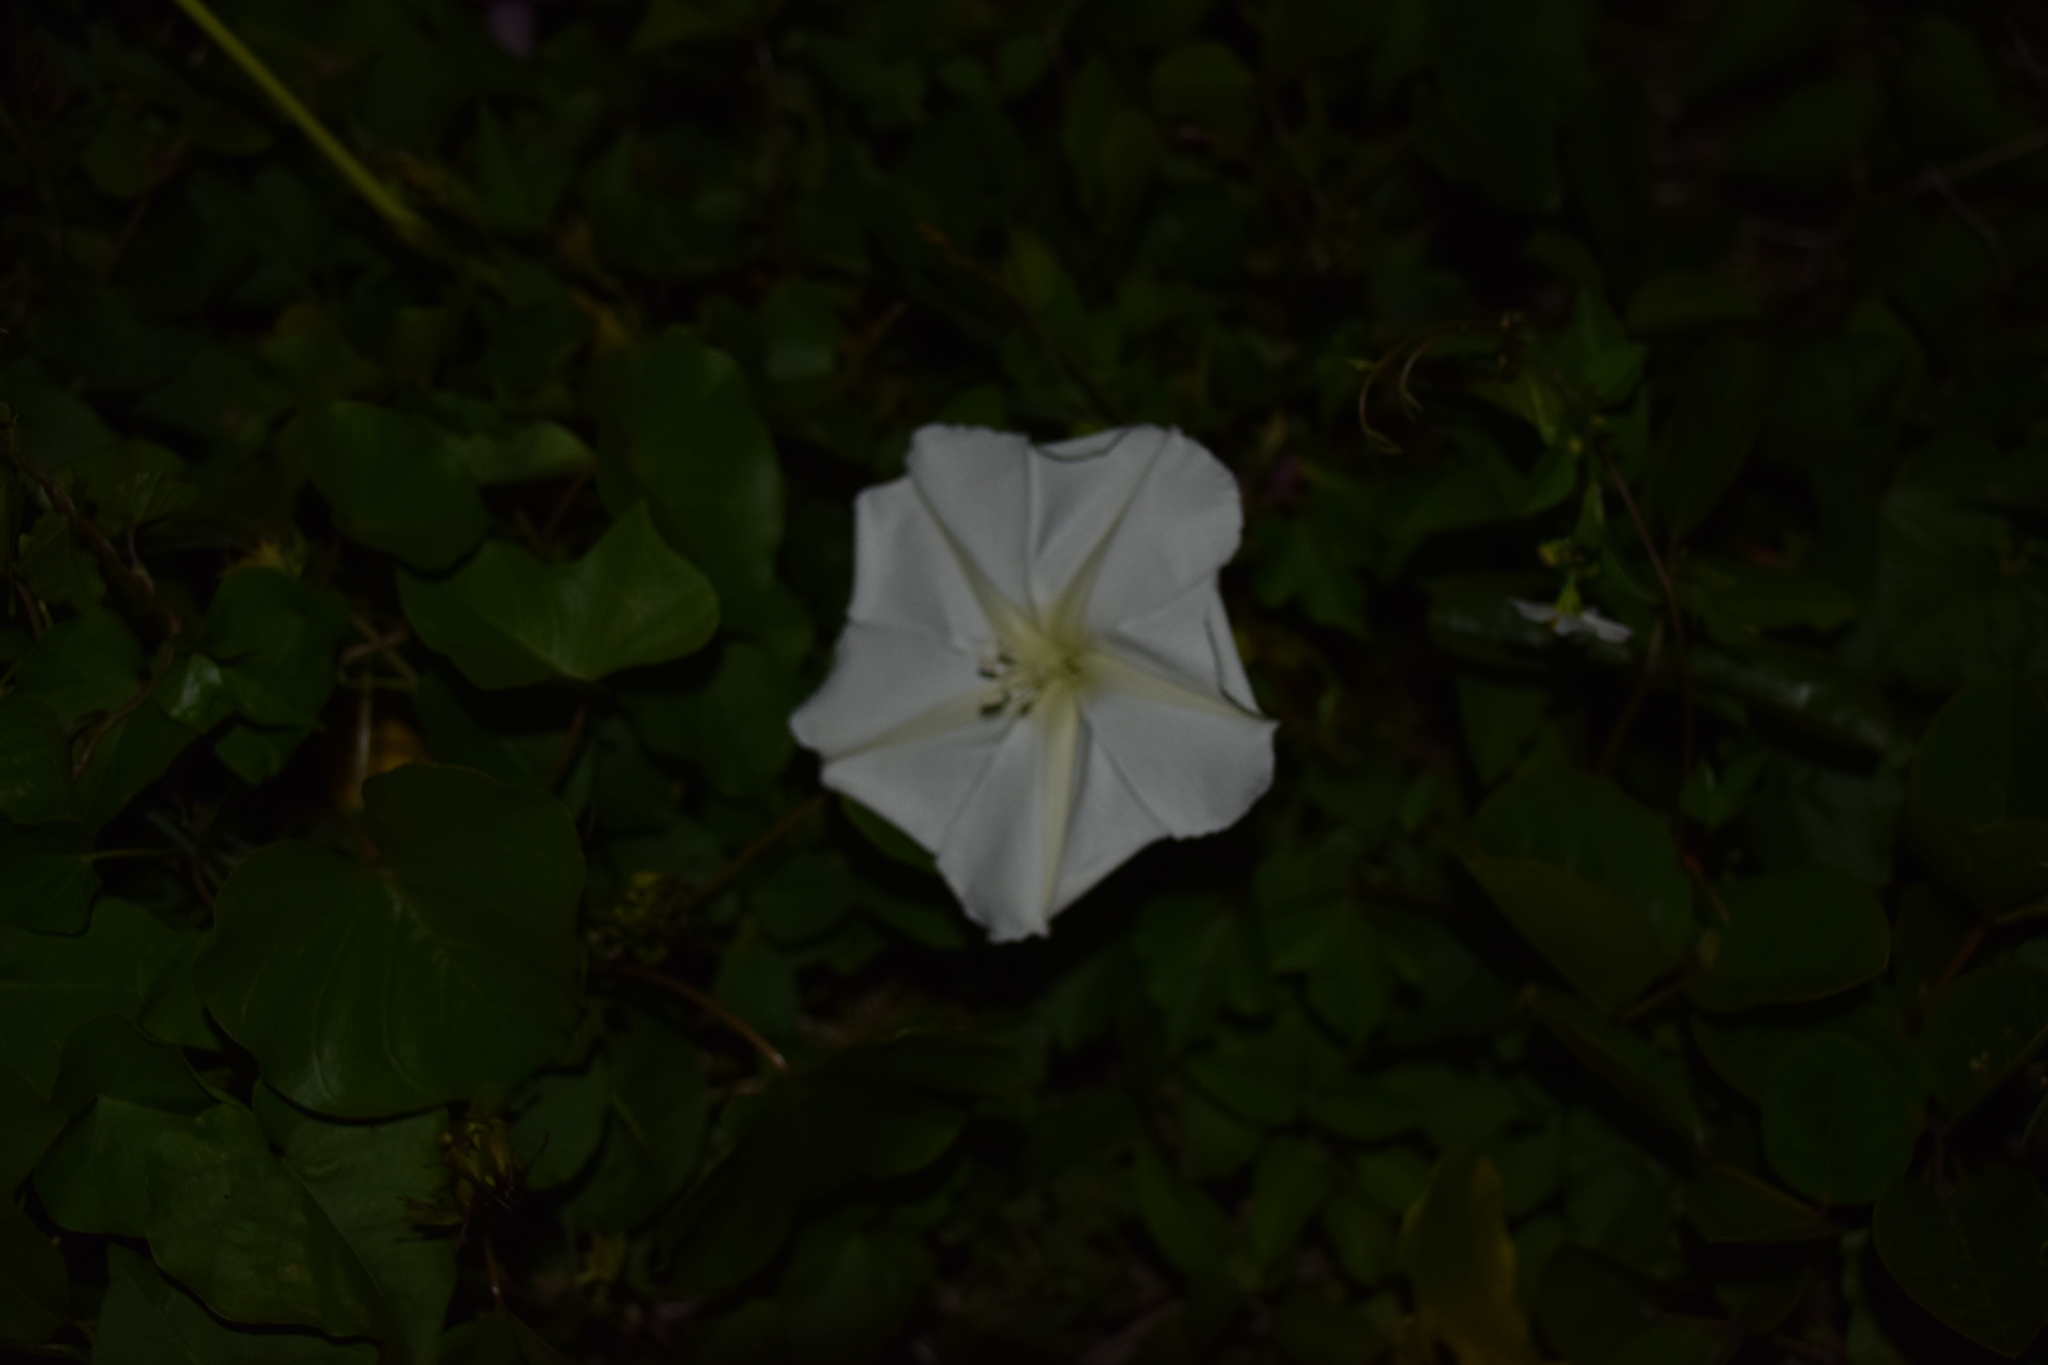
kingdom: Plantae
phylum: Tracheophyta
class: Magnoliopsida
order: Solanales
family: Convolvulaceae
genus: Ipomoea
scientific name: Ipomoea alba
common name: Moonflower
